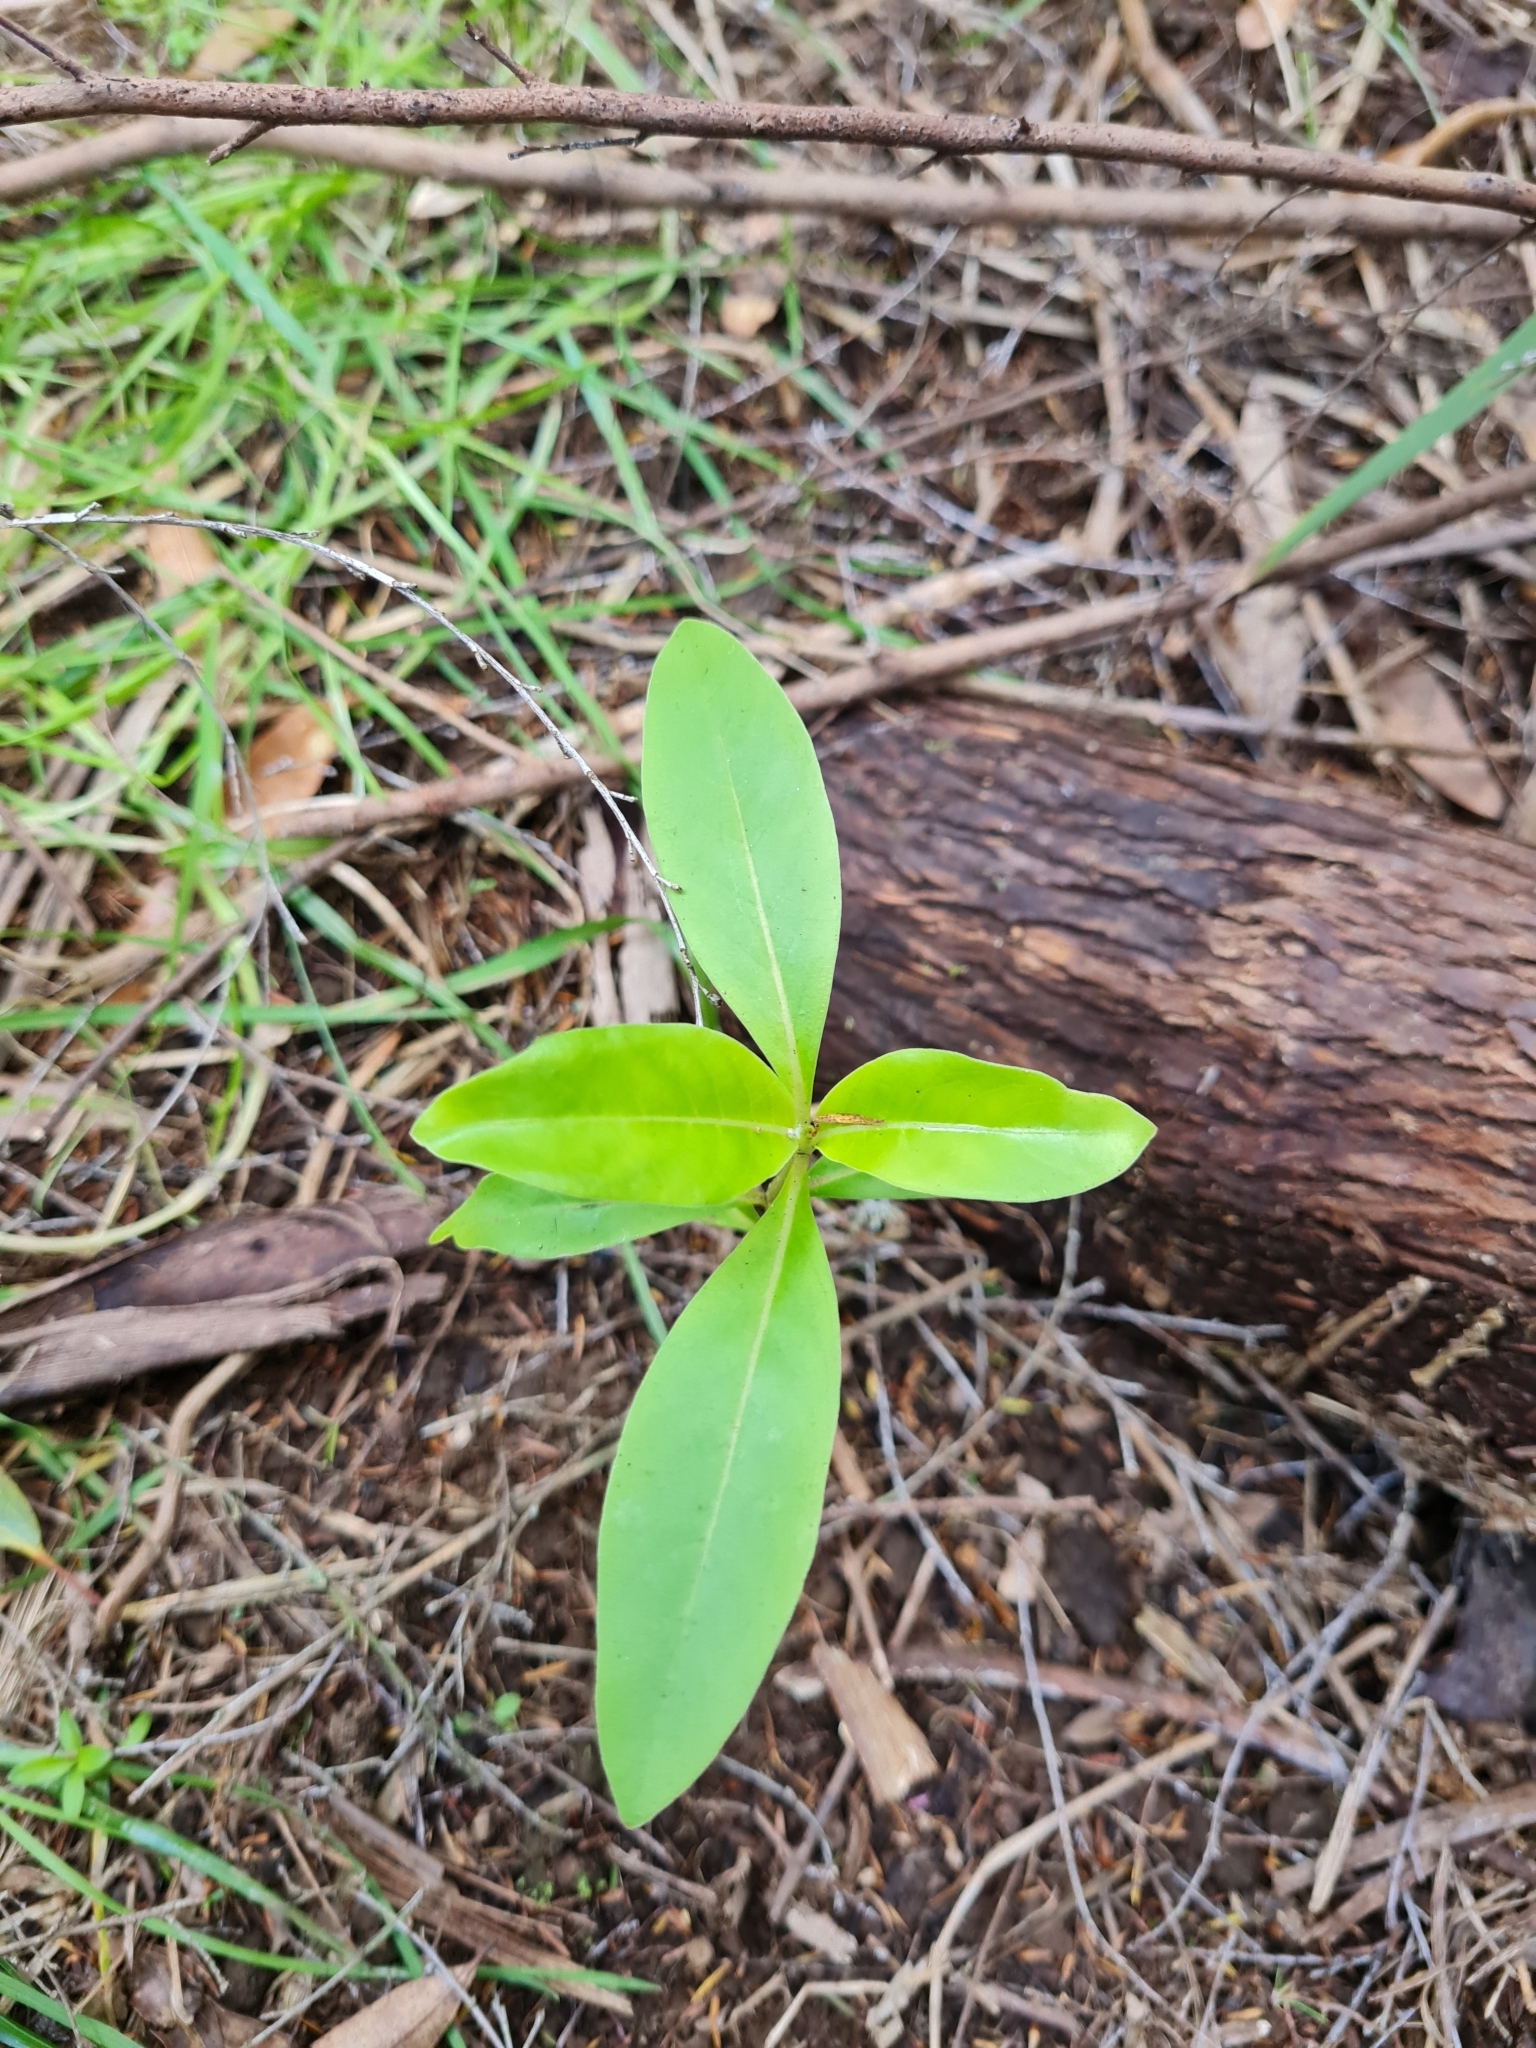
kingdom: Plantae
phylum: Tracheophyta
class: Magnoliopsida
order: Gentianales
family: Rubiaceae
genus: Coprosma
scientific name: Coprosma robusta
